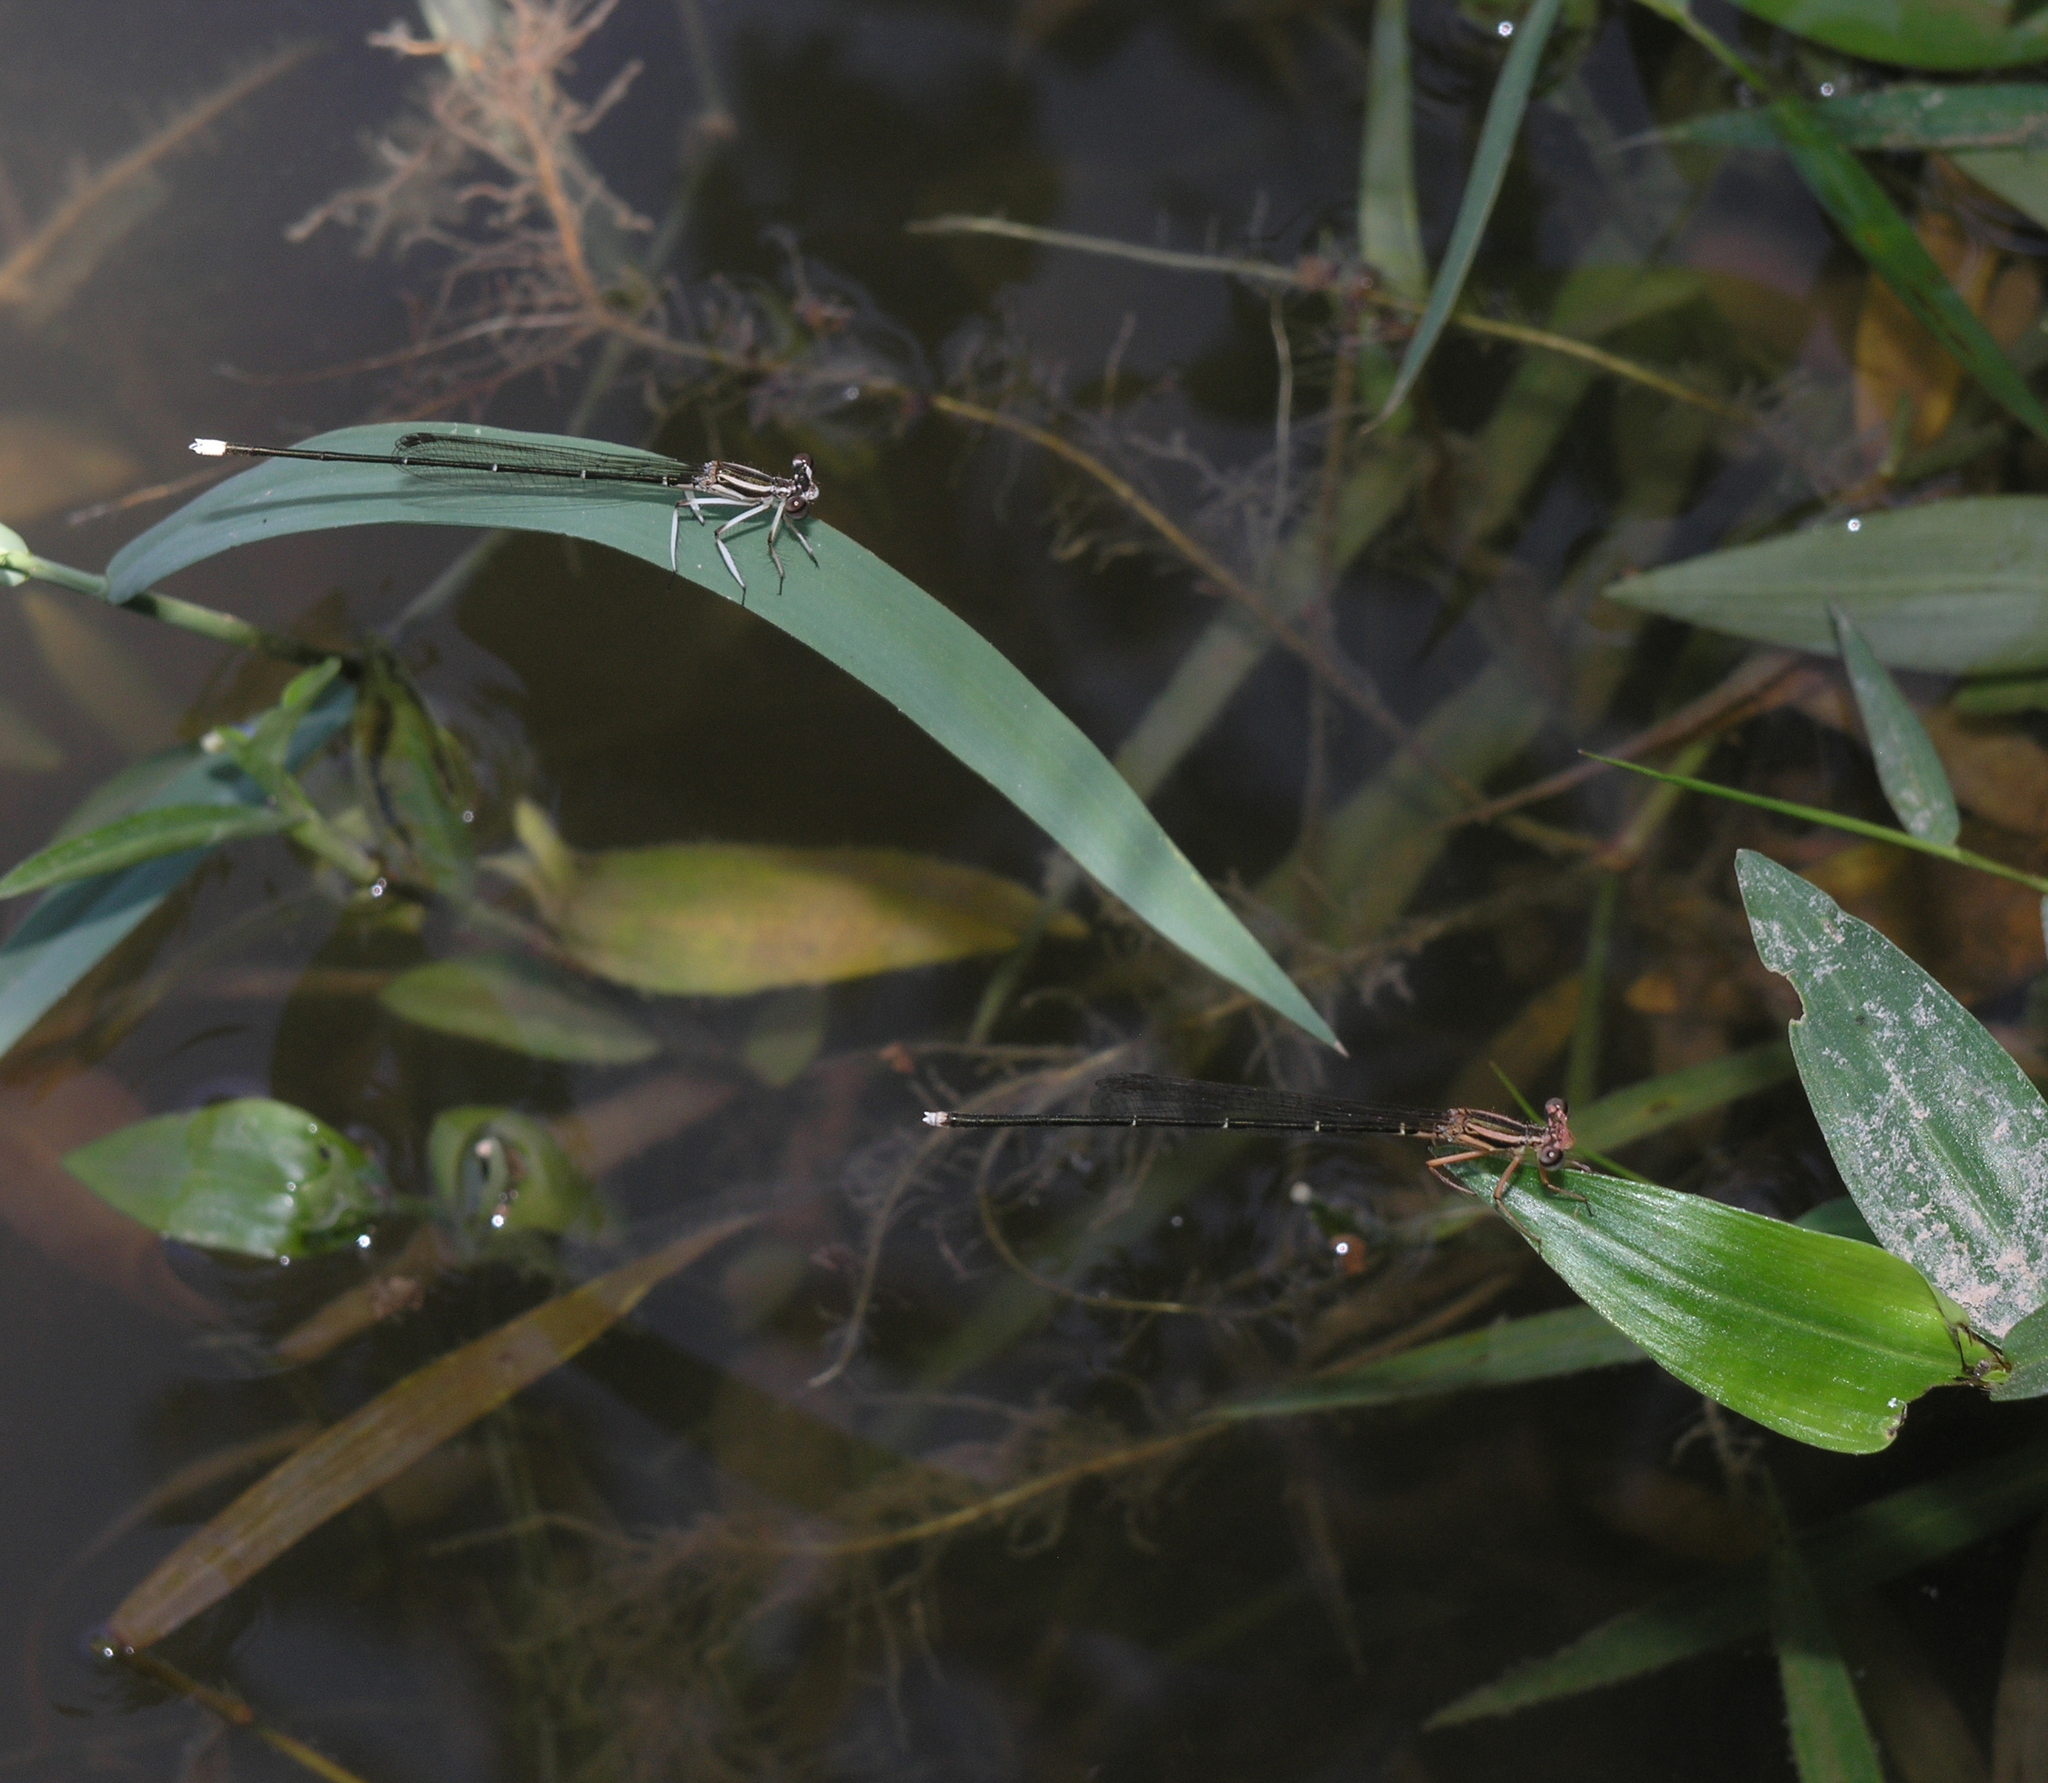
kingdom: Animalia
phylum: Arthropoda
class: Insecta
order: Odonata
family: Platycnemididae
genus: Pseudocopera
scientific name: Pseudocopera ciliata
